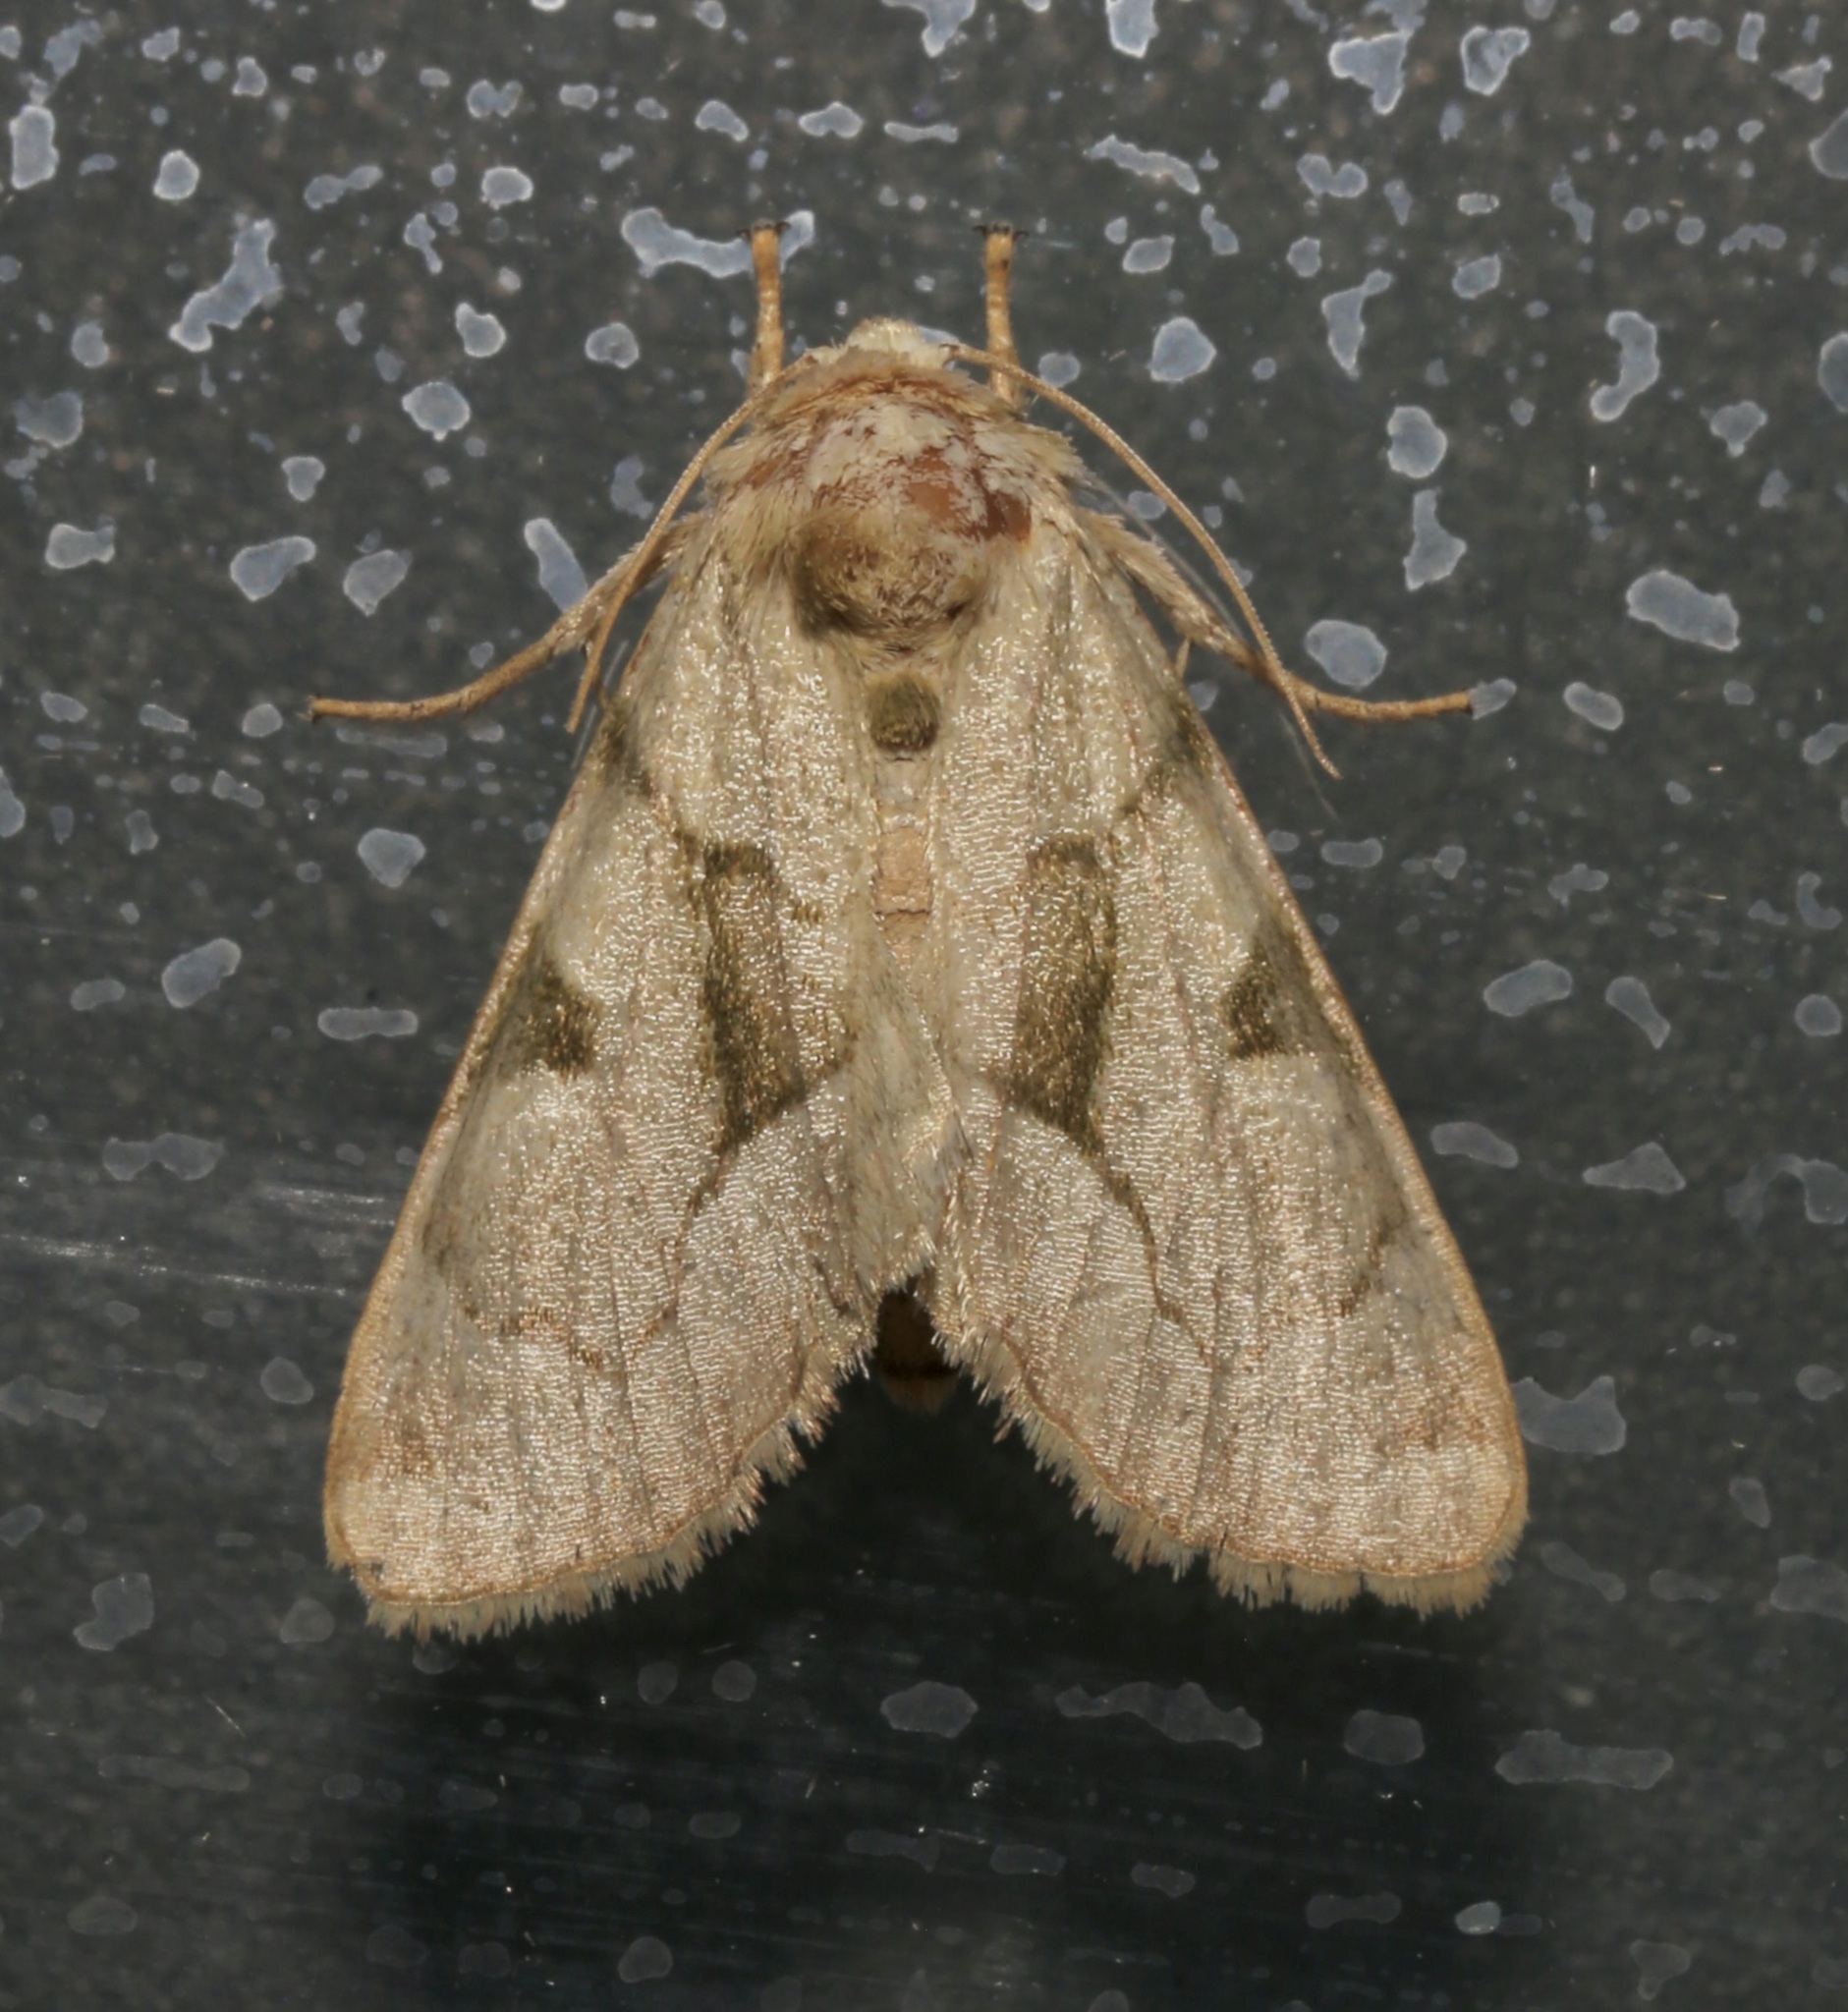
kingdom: Animalia
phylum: Arthropoda
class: Insecta
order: Lepidoptera
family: Noctuidae
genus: Oslaria
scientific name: Oslaria viridifera
